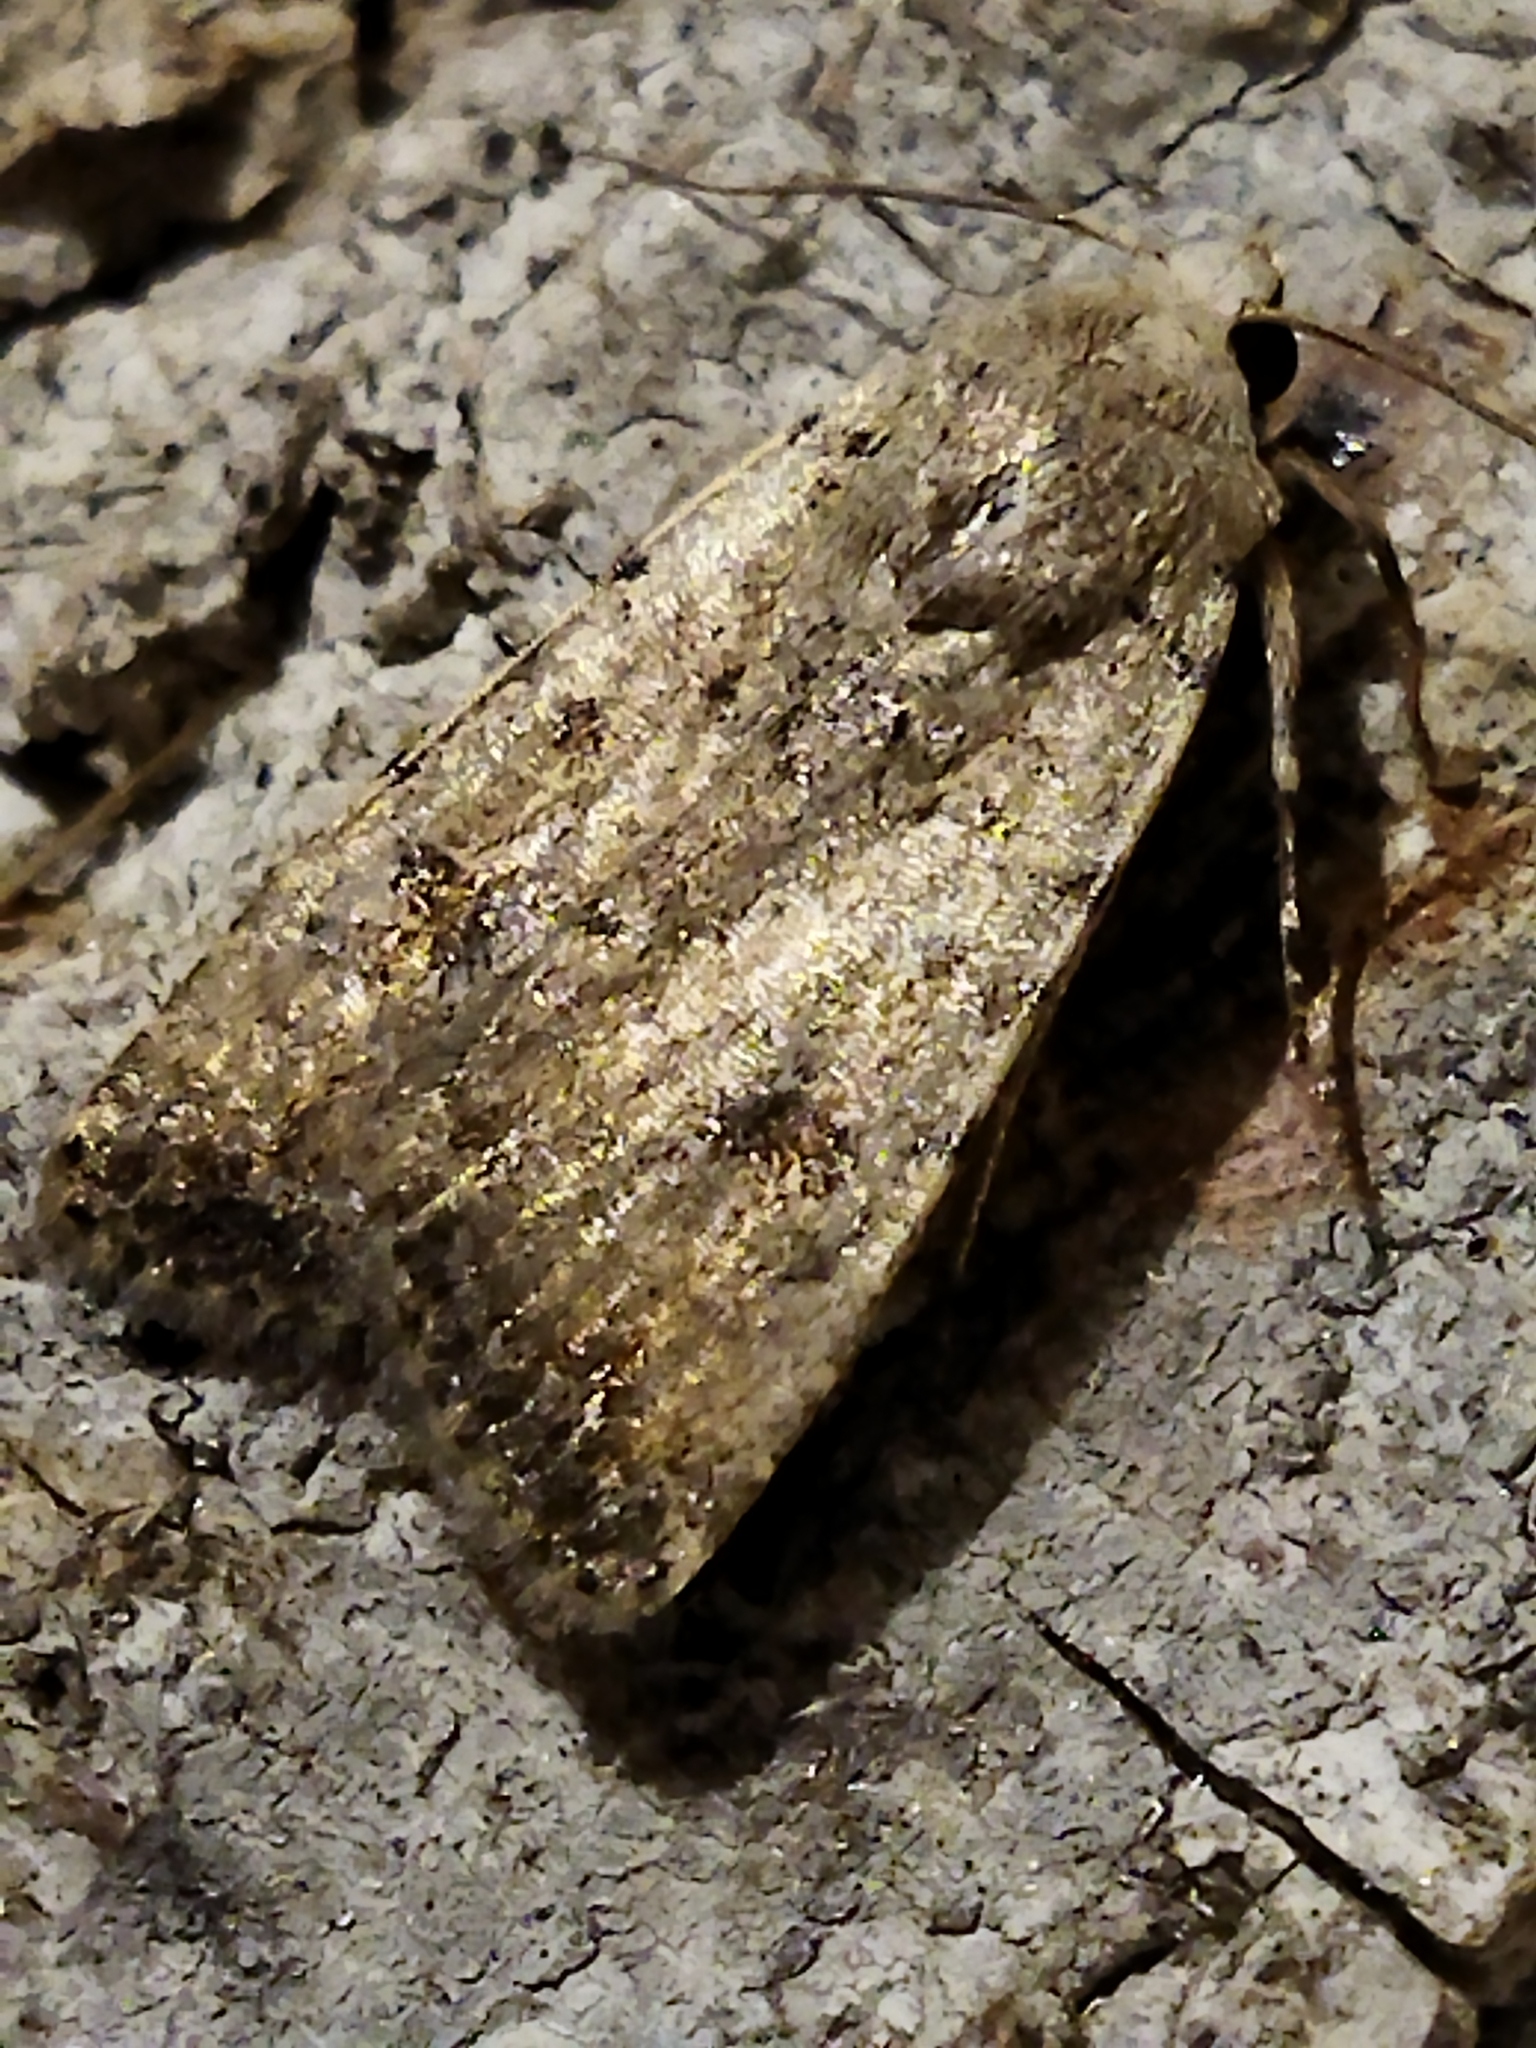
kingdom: Animalia
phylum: Arthropoda
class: Insecta
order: Lepidoptera
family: Noctuidae
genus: Caradrina
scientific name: Caradrina clavipalpis
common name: Pale mottled willow
